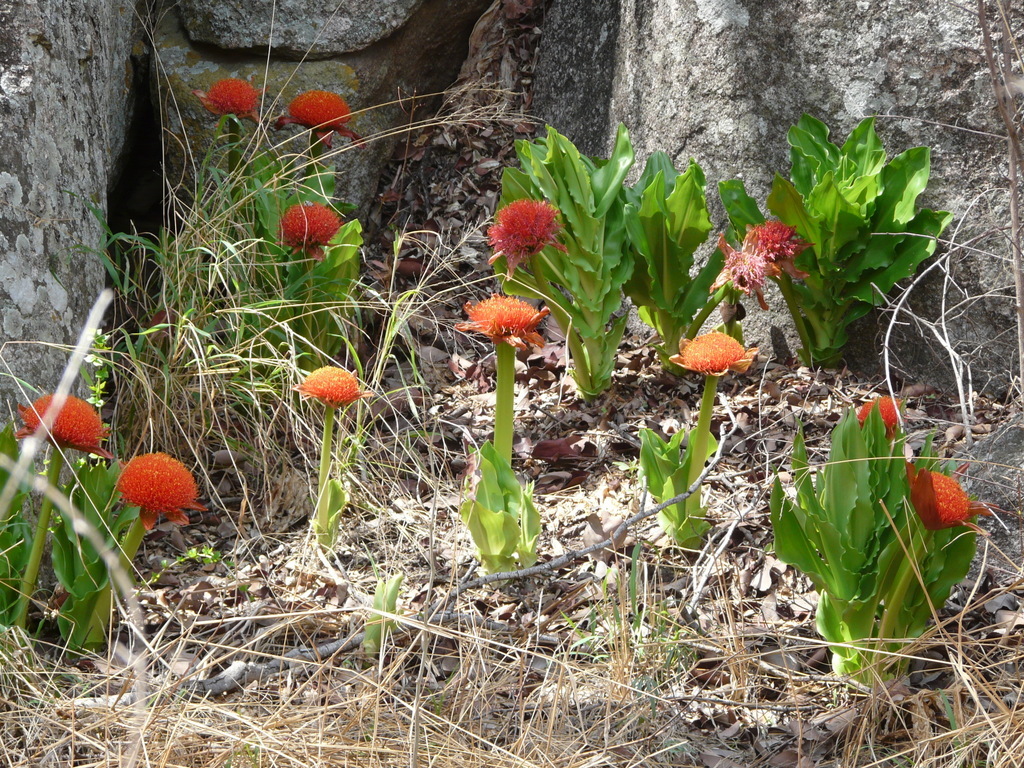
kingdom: Plantae
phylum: Tracheophyta
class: Liliopsida
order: Asparagales
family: Amaryllidaceae
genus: Scadoxus
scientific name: Scadoxus puniceus
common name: Royal-paintbrush
